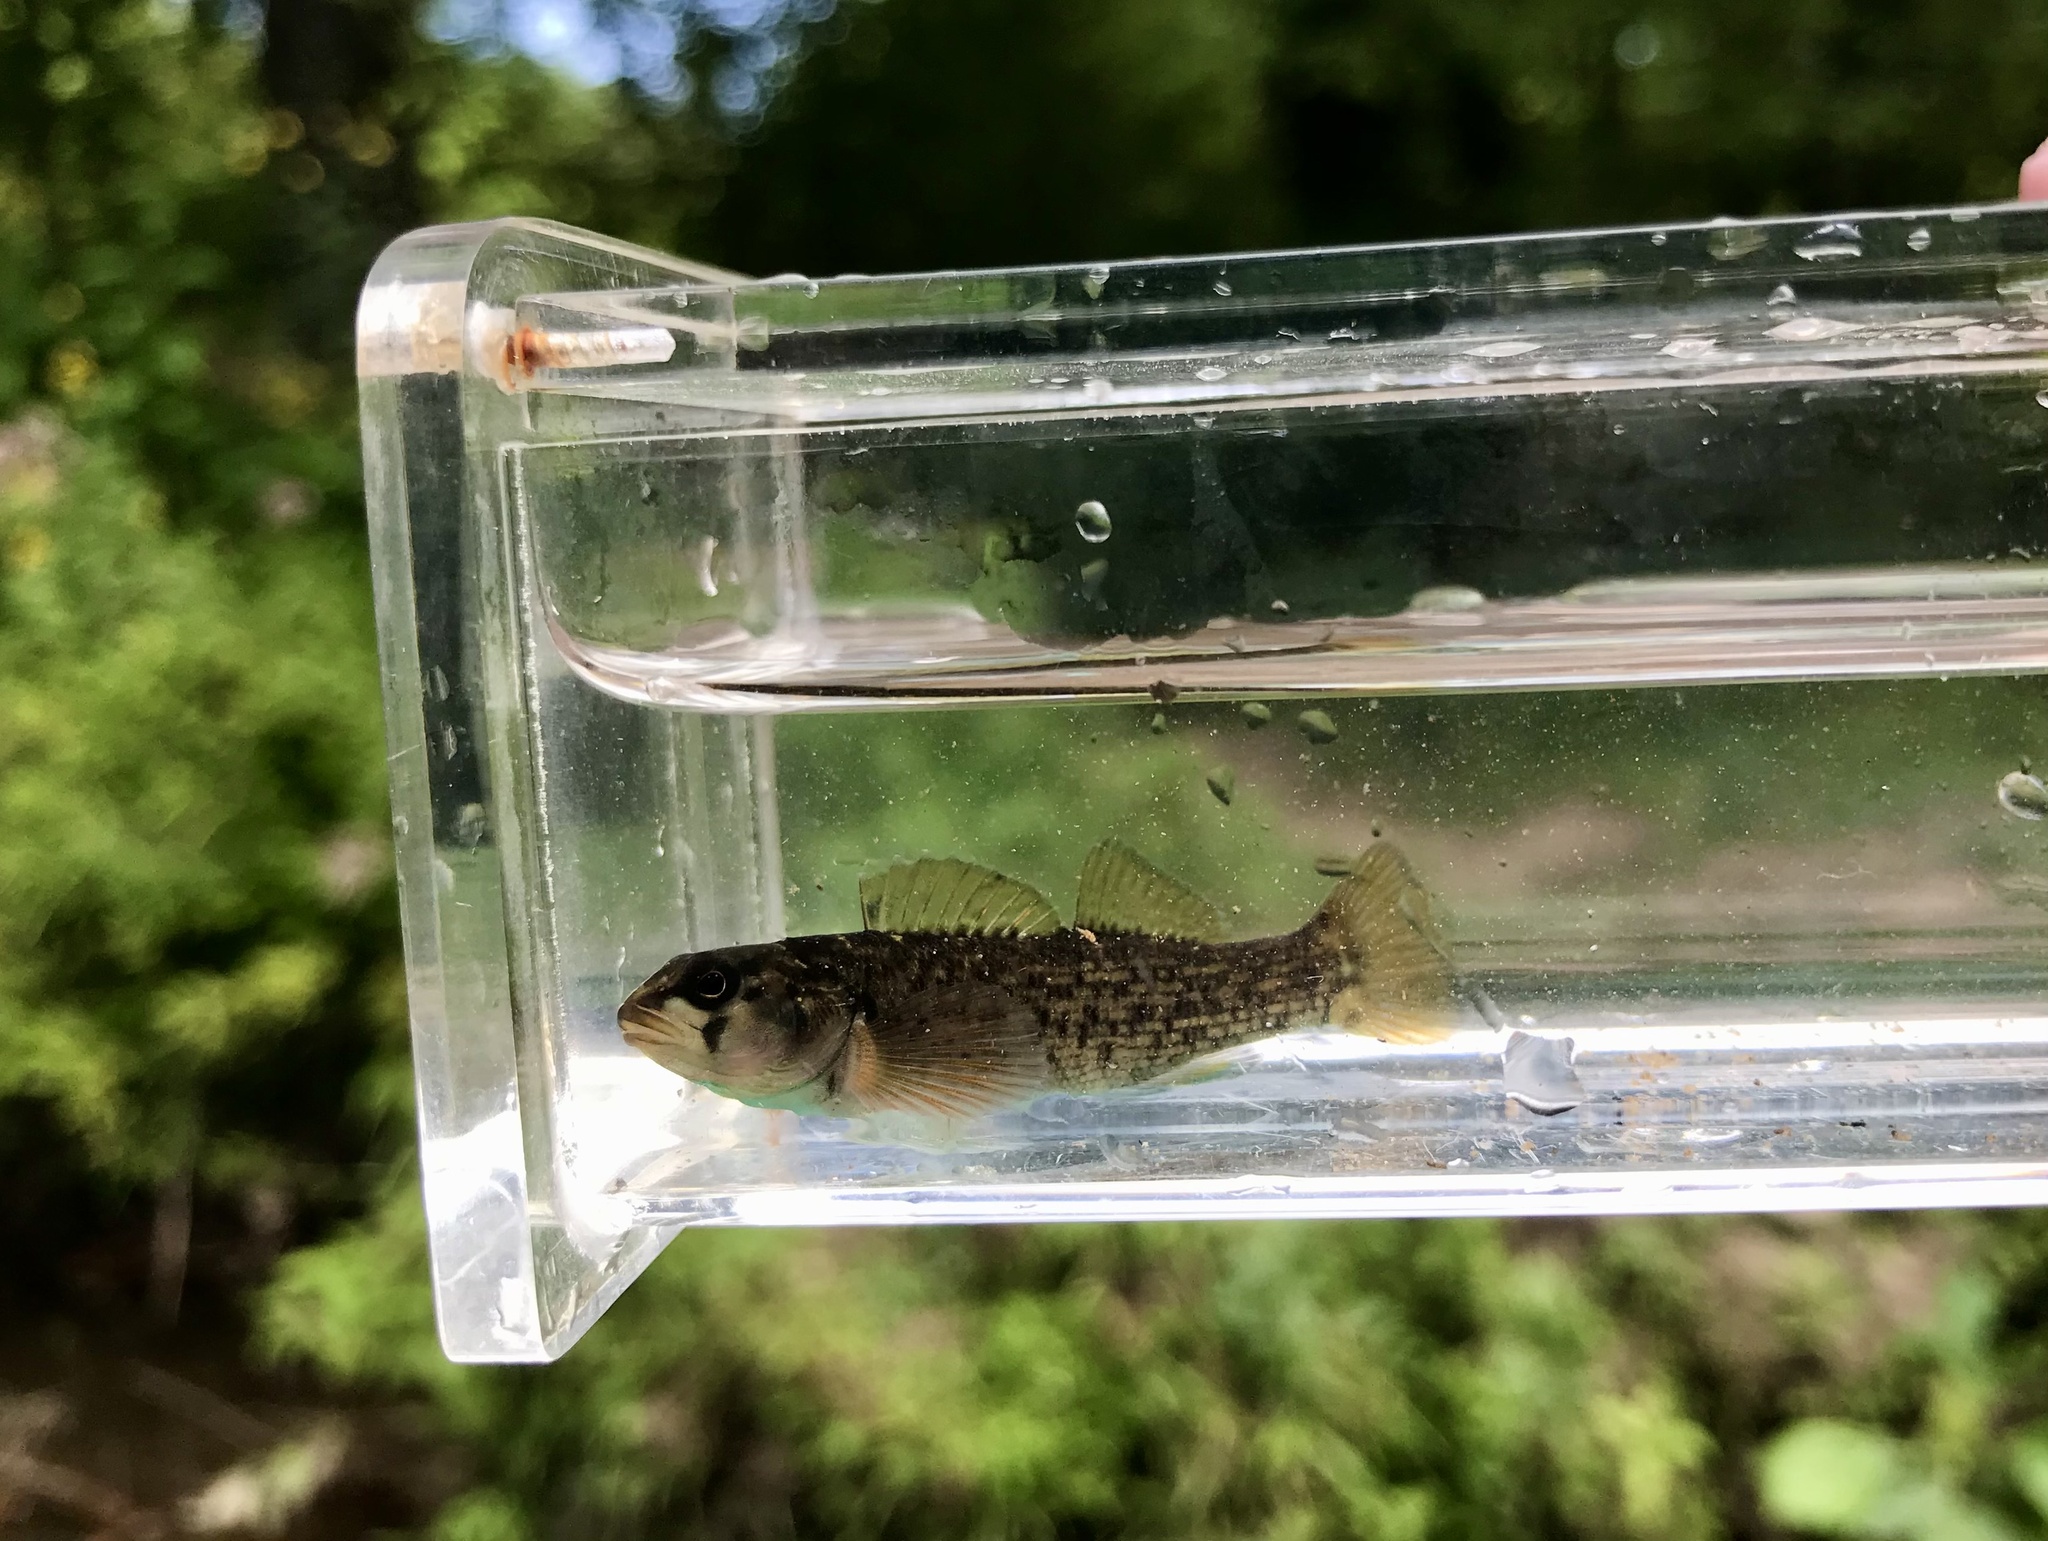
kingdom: Animalia
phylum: Chordata
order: Perciformes
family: Percidae
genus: Etheostoma
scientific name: Etheostoma chlorobranchium
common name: Greenfin darter
